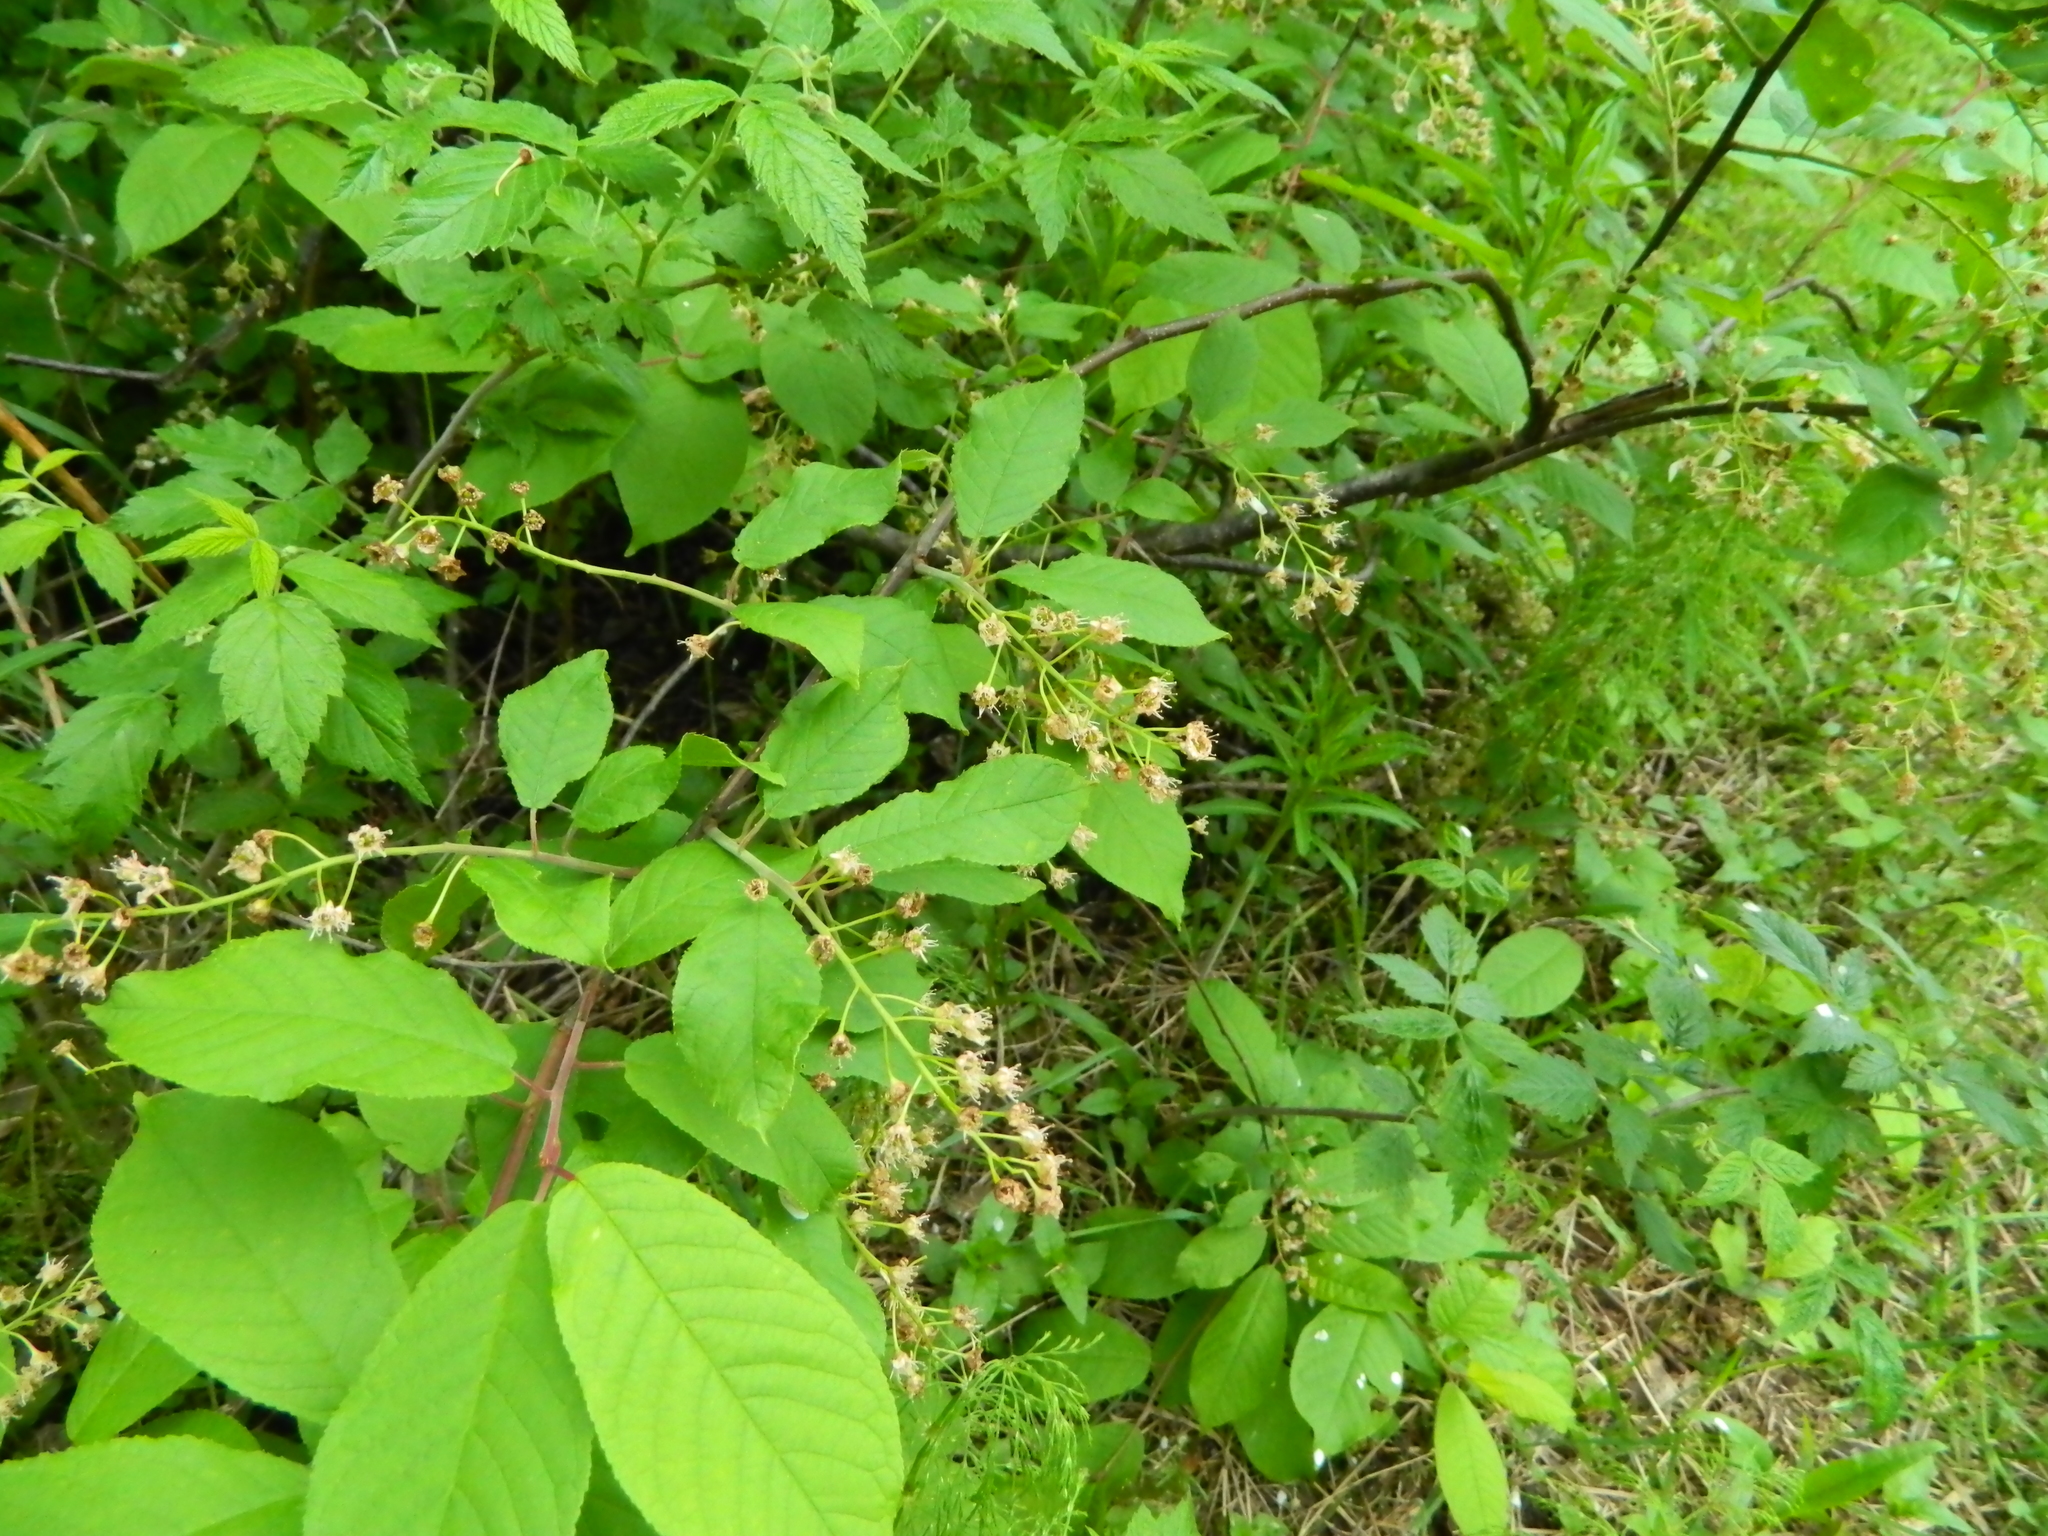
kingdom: Plantae
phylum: Tracheophyta
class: Magnoliopsida
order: Rosales
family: Rosaceae
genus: Prunus
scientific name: Prunus padus
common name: Bird cherry
